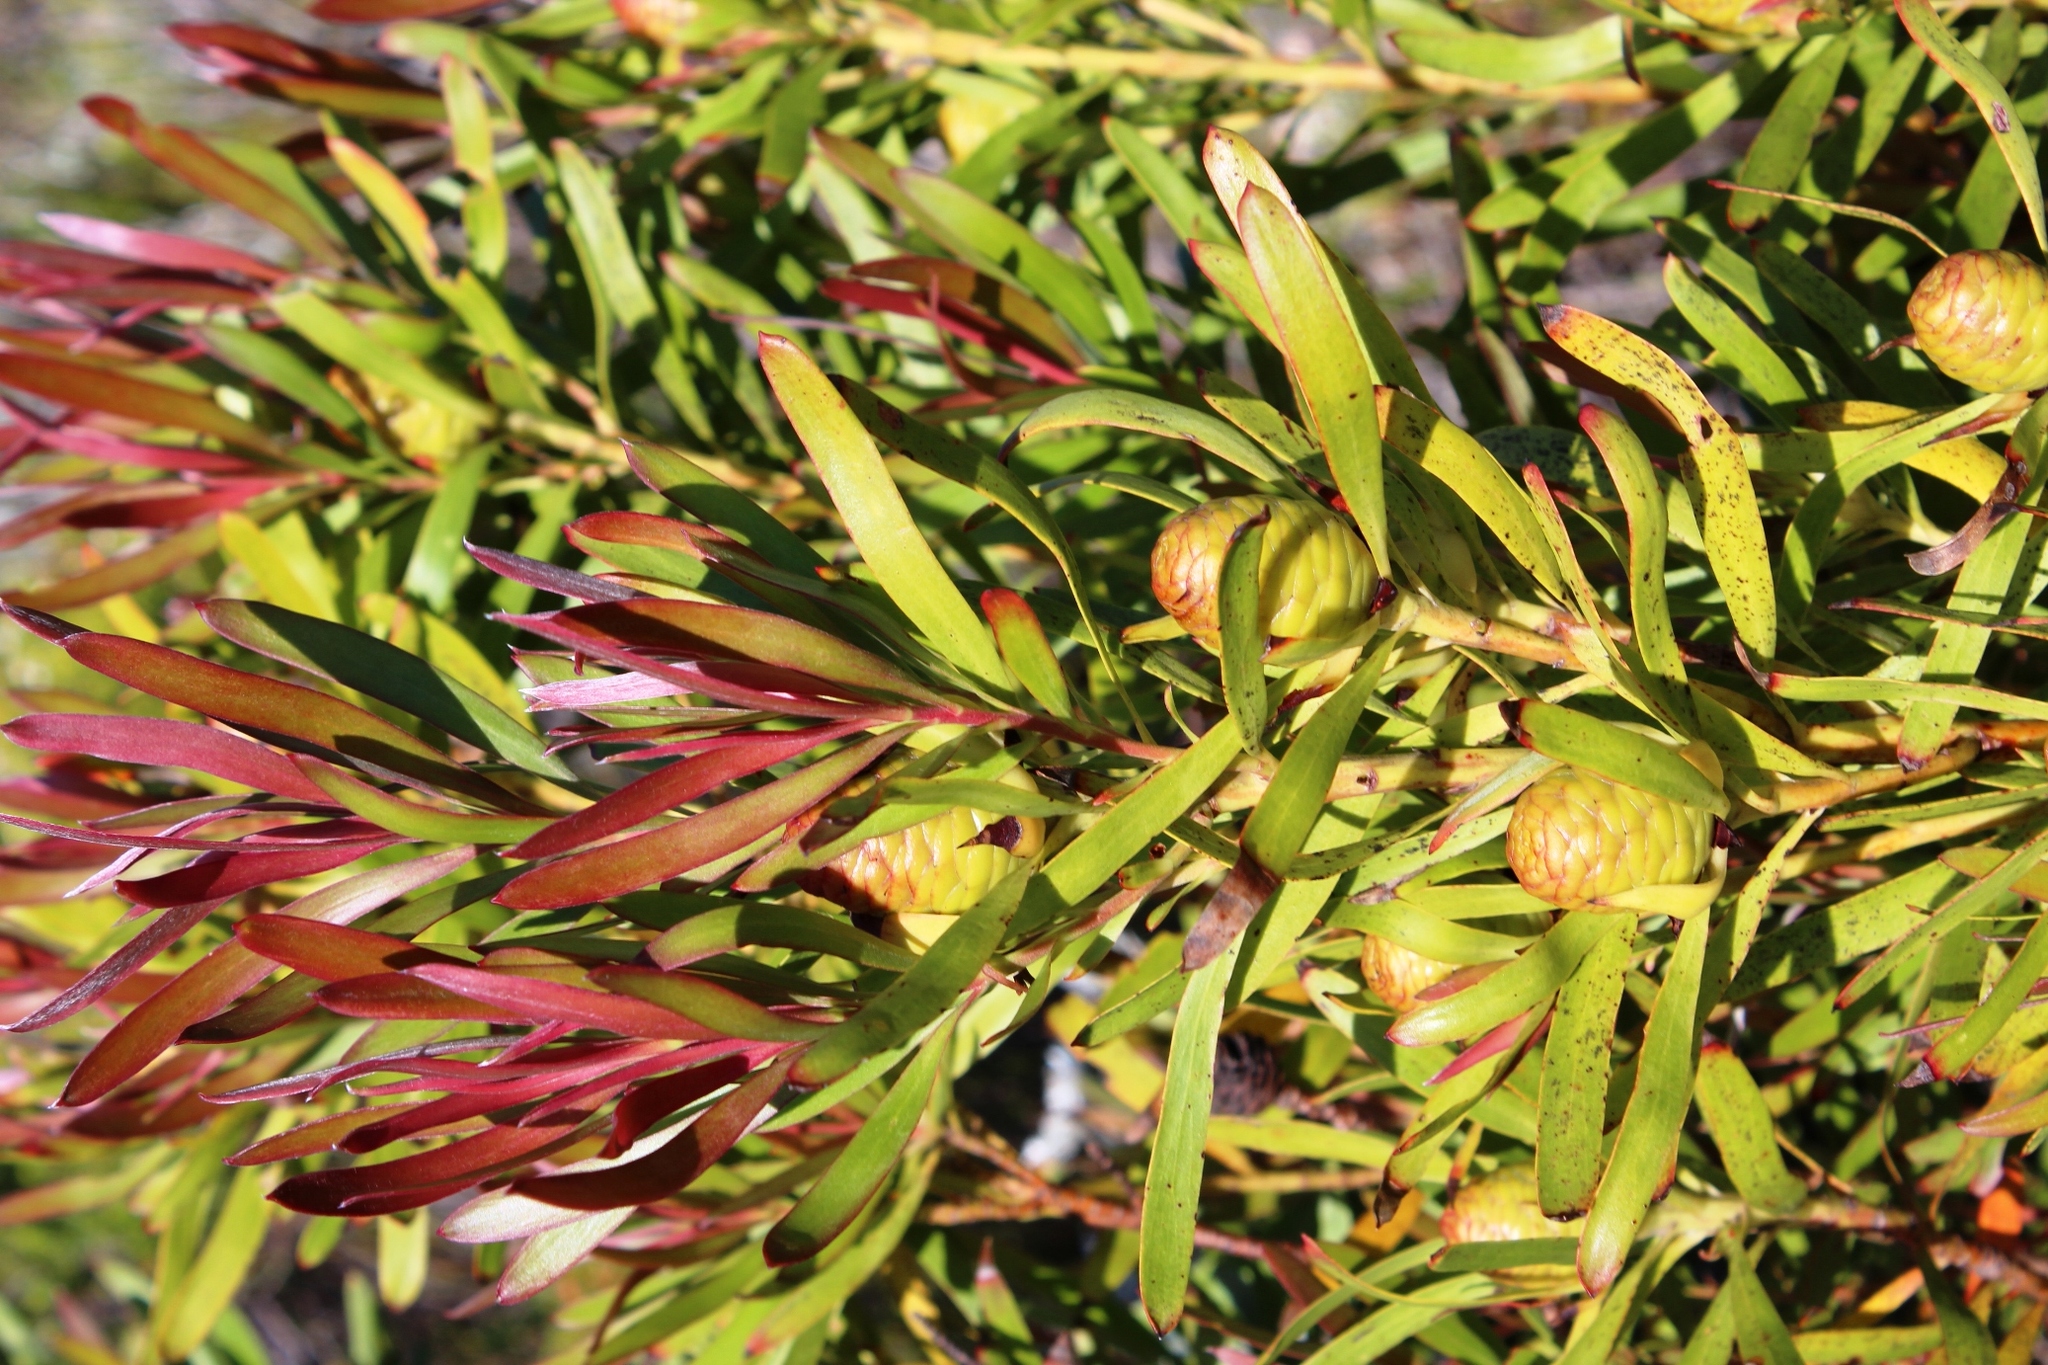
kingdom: Plantae
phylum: Tracheophyta
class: Magnoliopsida
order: Proteales
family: Proteaceae
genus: Leucadendron
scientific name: Leucadendron eucalyptifolium
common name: Gum-leaved conebush
